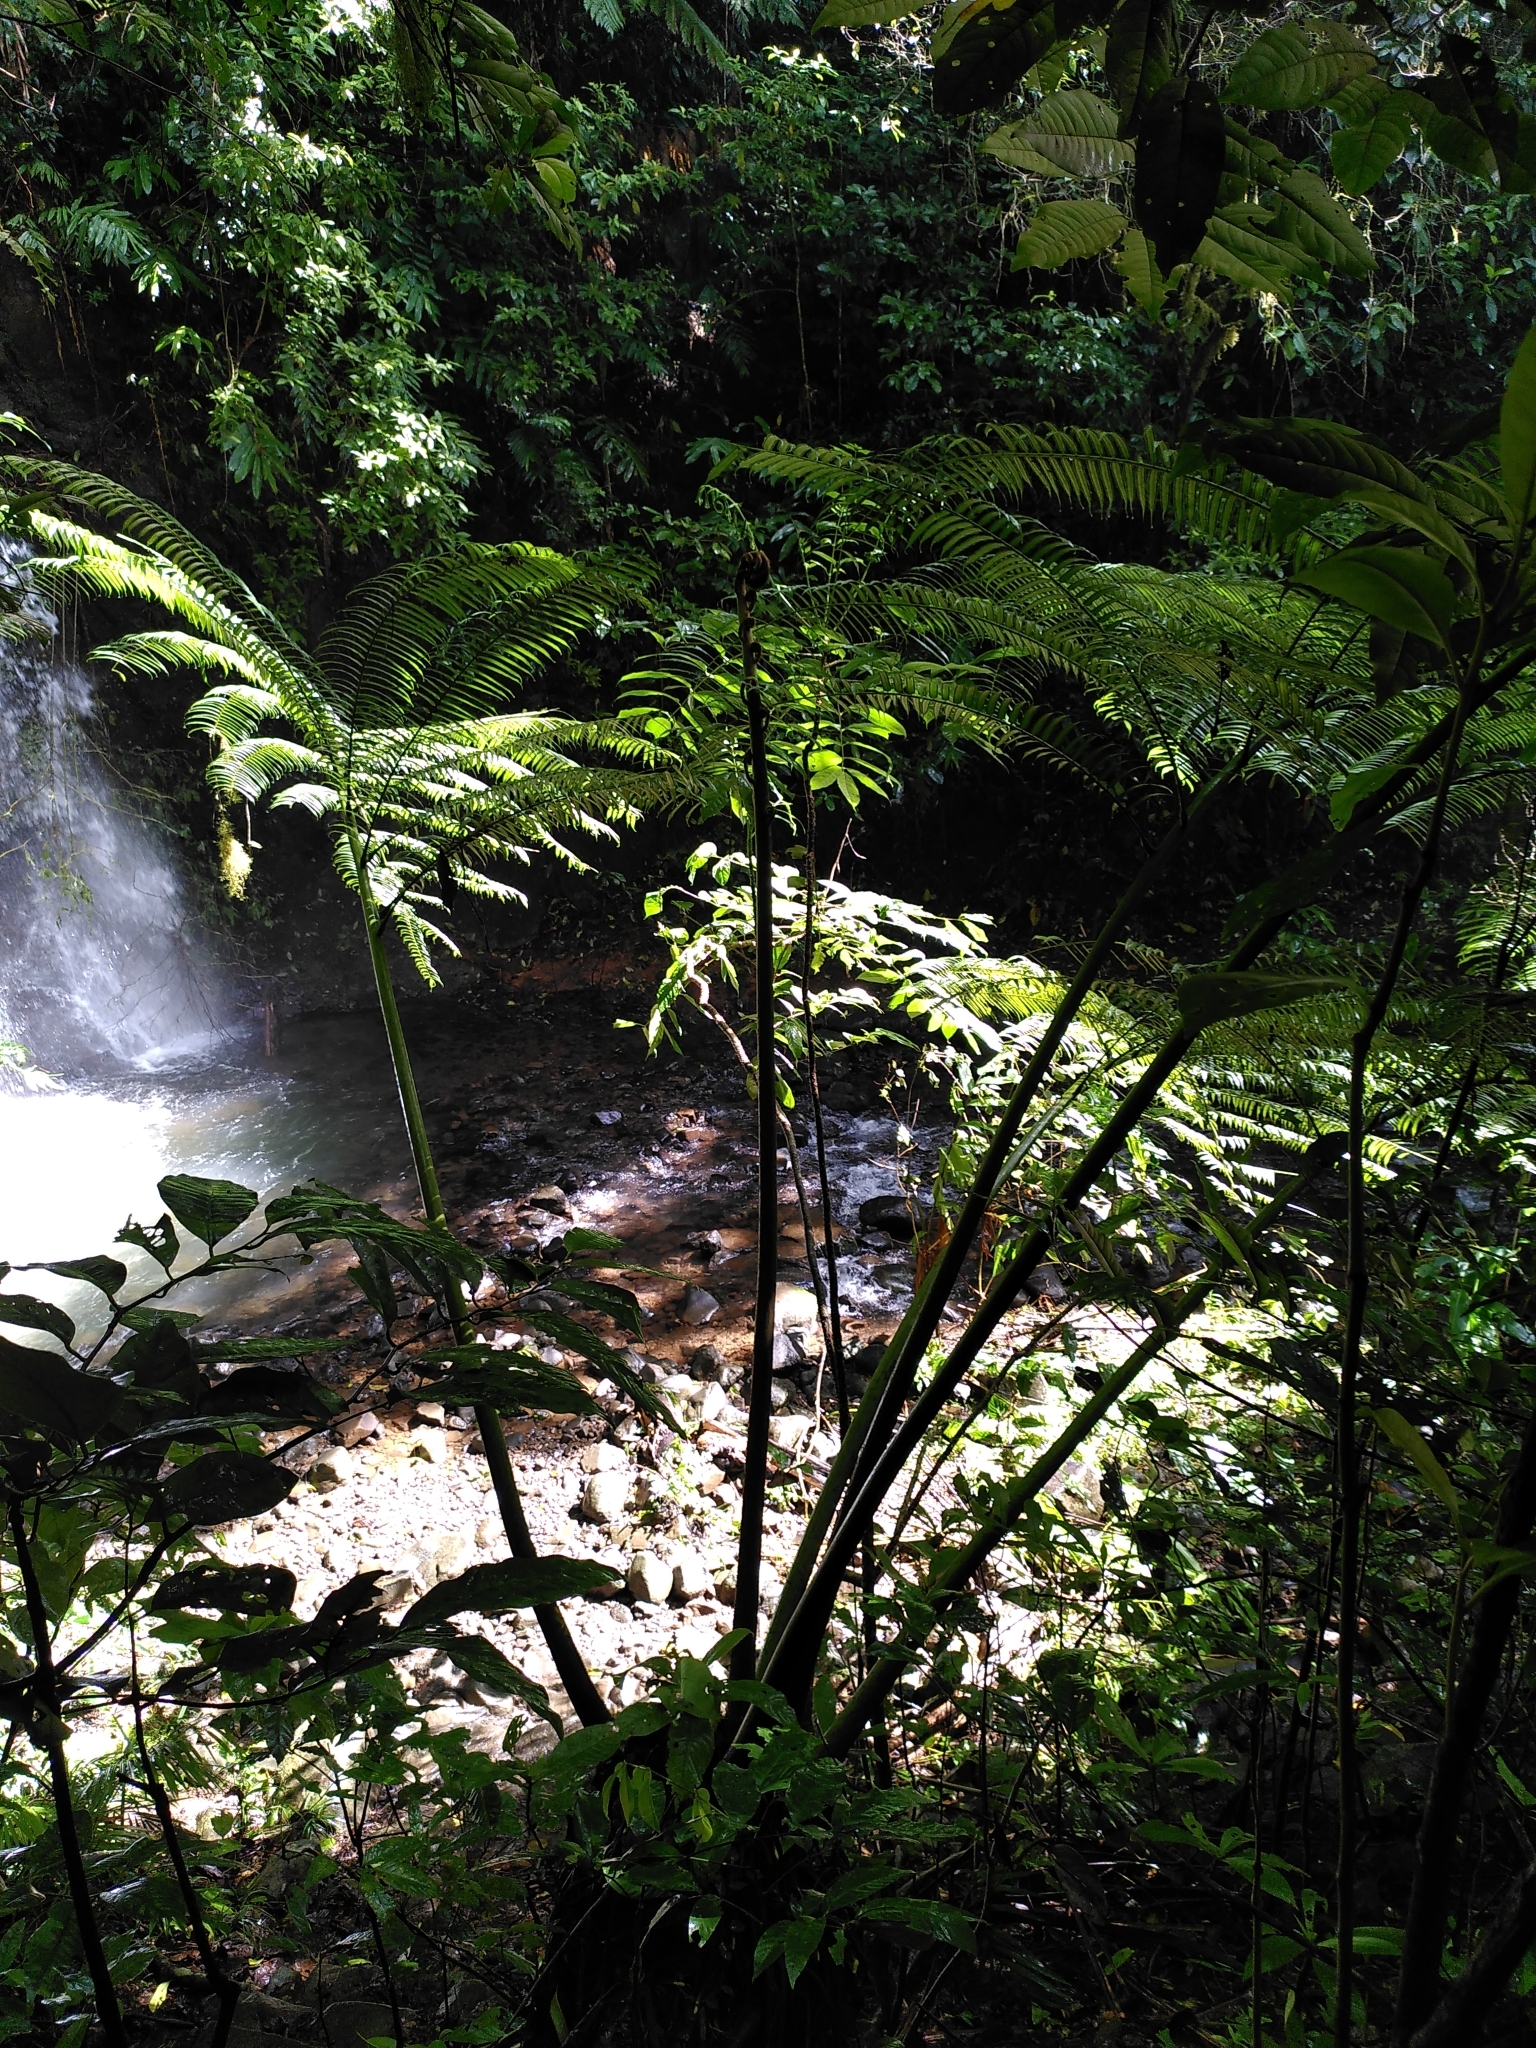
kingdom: Plantae
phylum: Tracheophyta
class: Polypodiopsida
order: Marattiales
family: Marattiaceae
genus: Angiopteris
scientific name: Angiopteris evecta
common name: Mule's-foot fern
